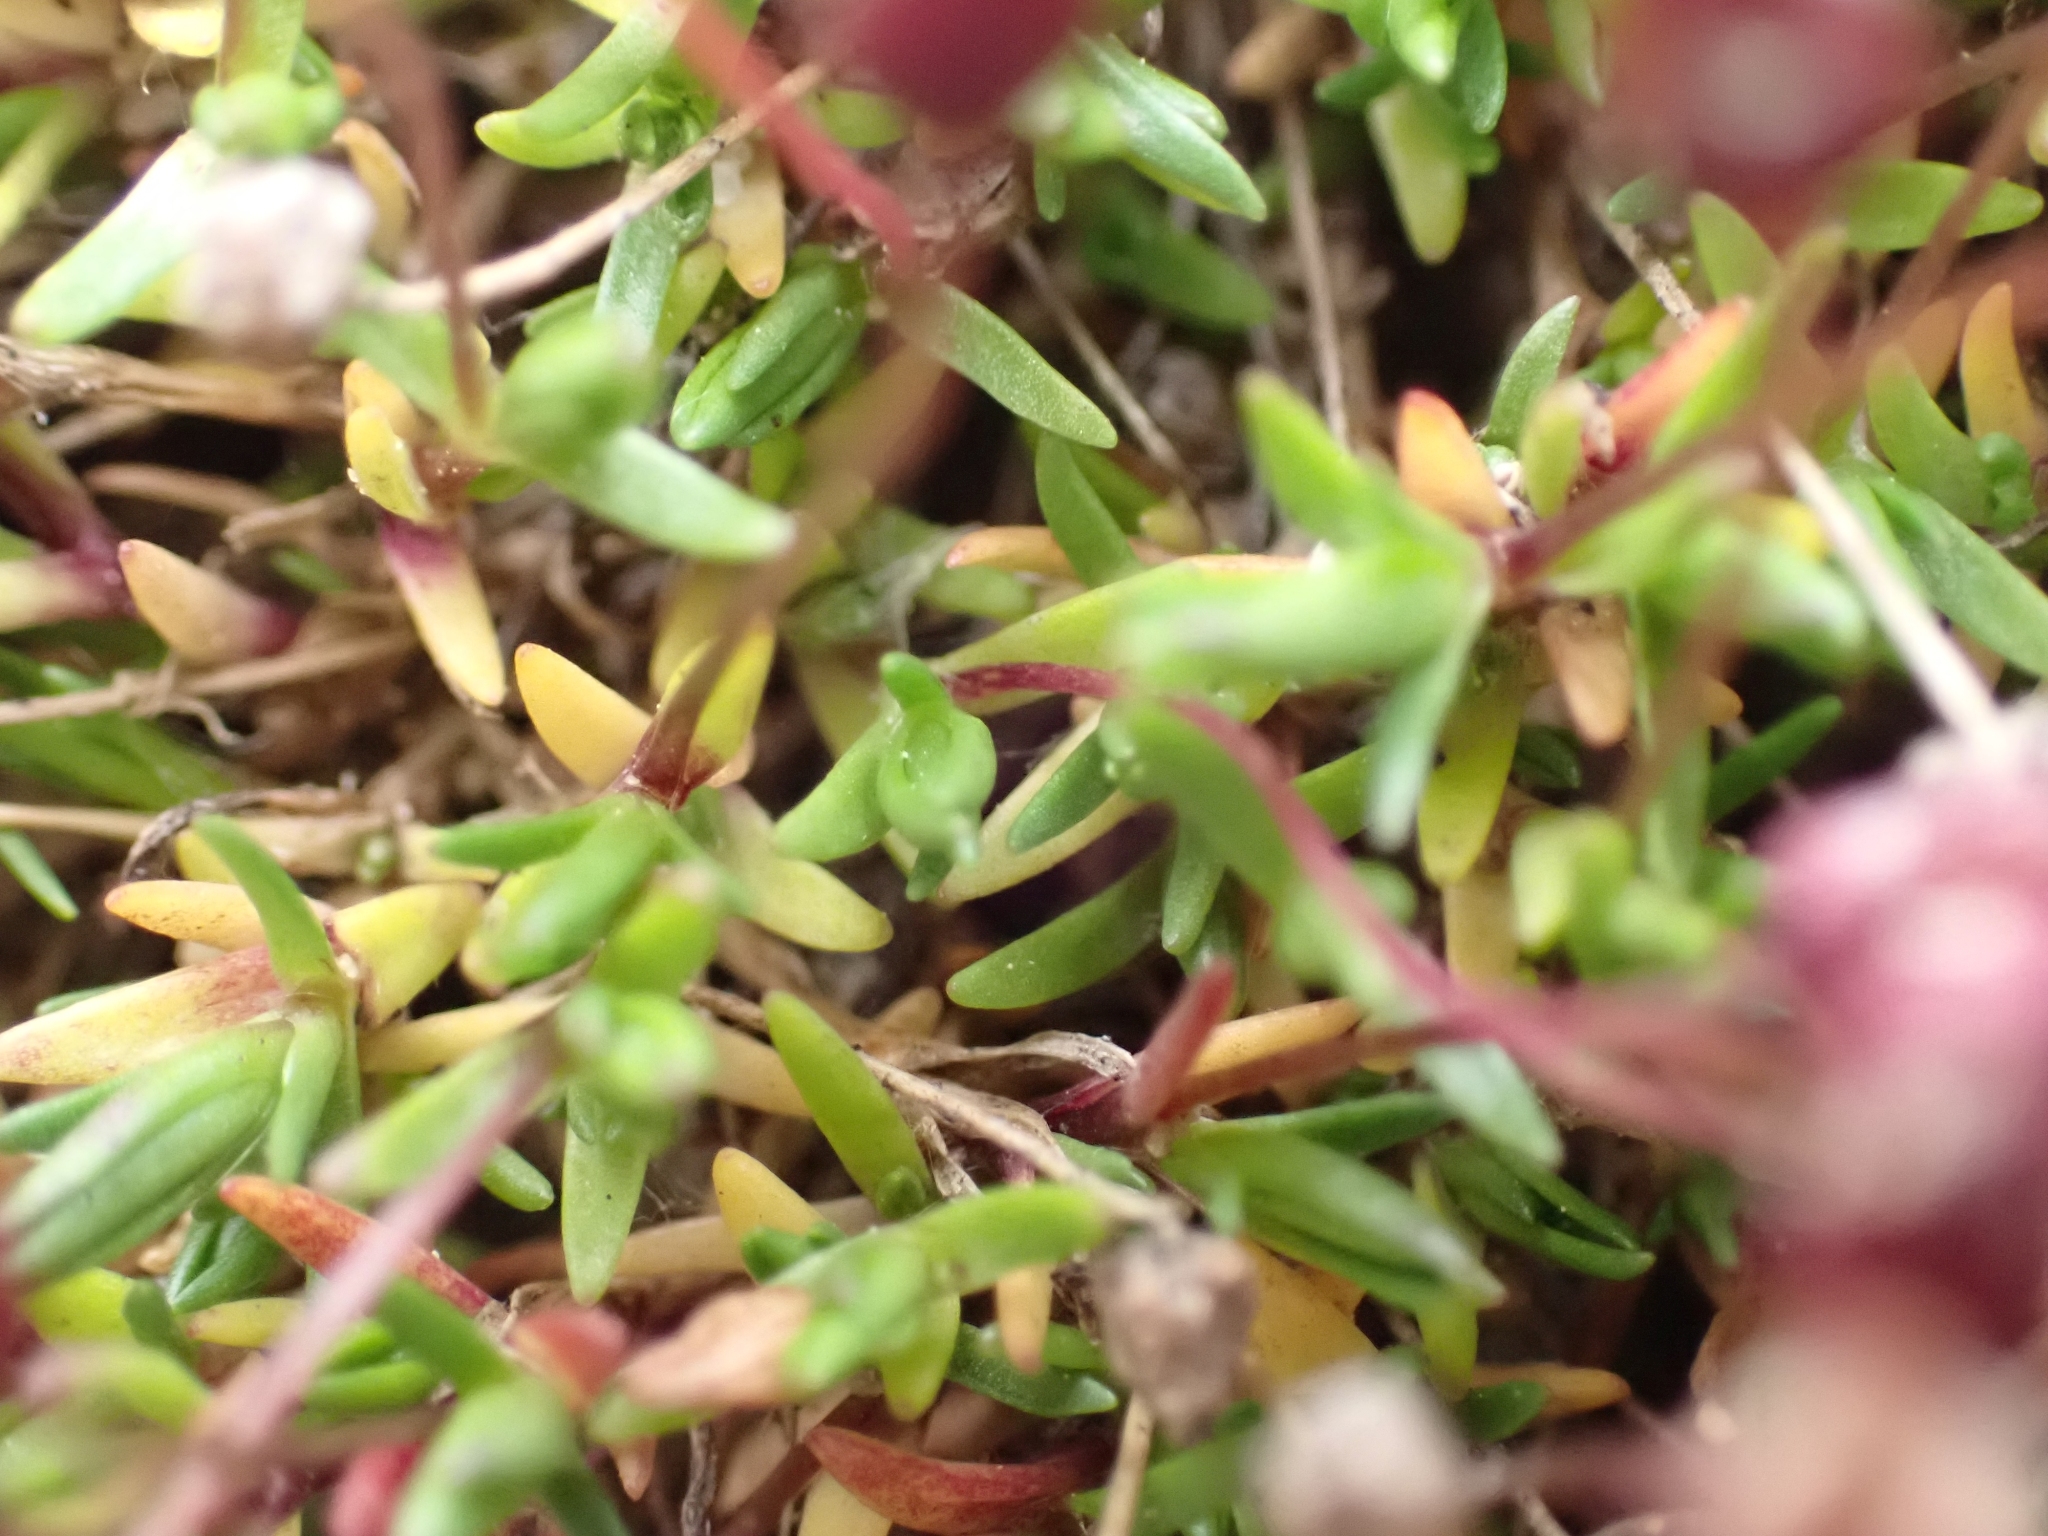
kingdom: Plantae
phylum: Tracheophyta
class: Magnoliopsida
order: Caryophyllales
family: Caryophyllaceae
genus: Sabulina
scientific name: Sabulina elegans
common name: Elegant stitchwort
